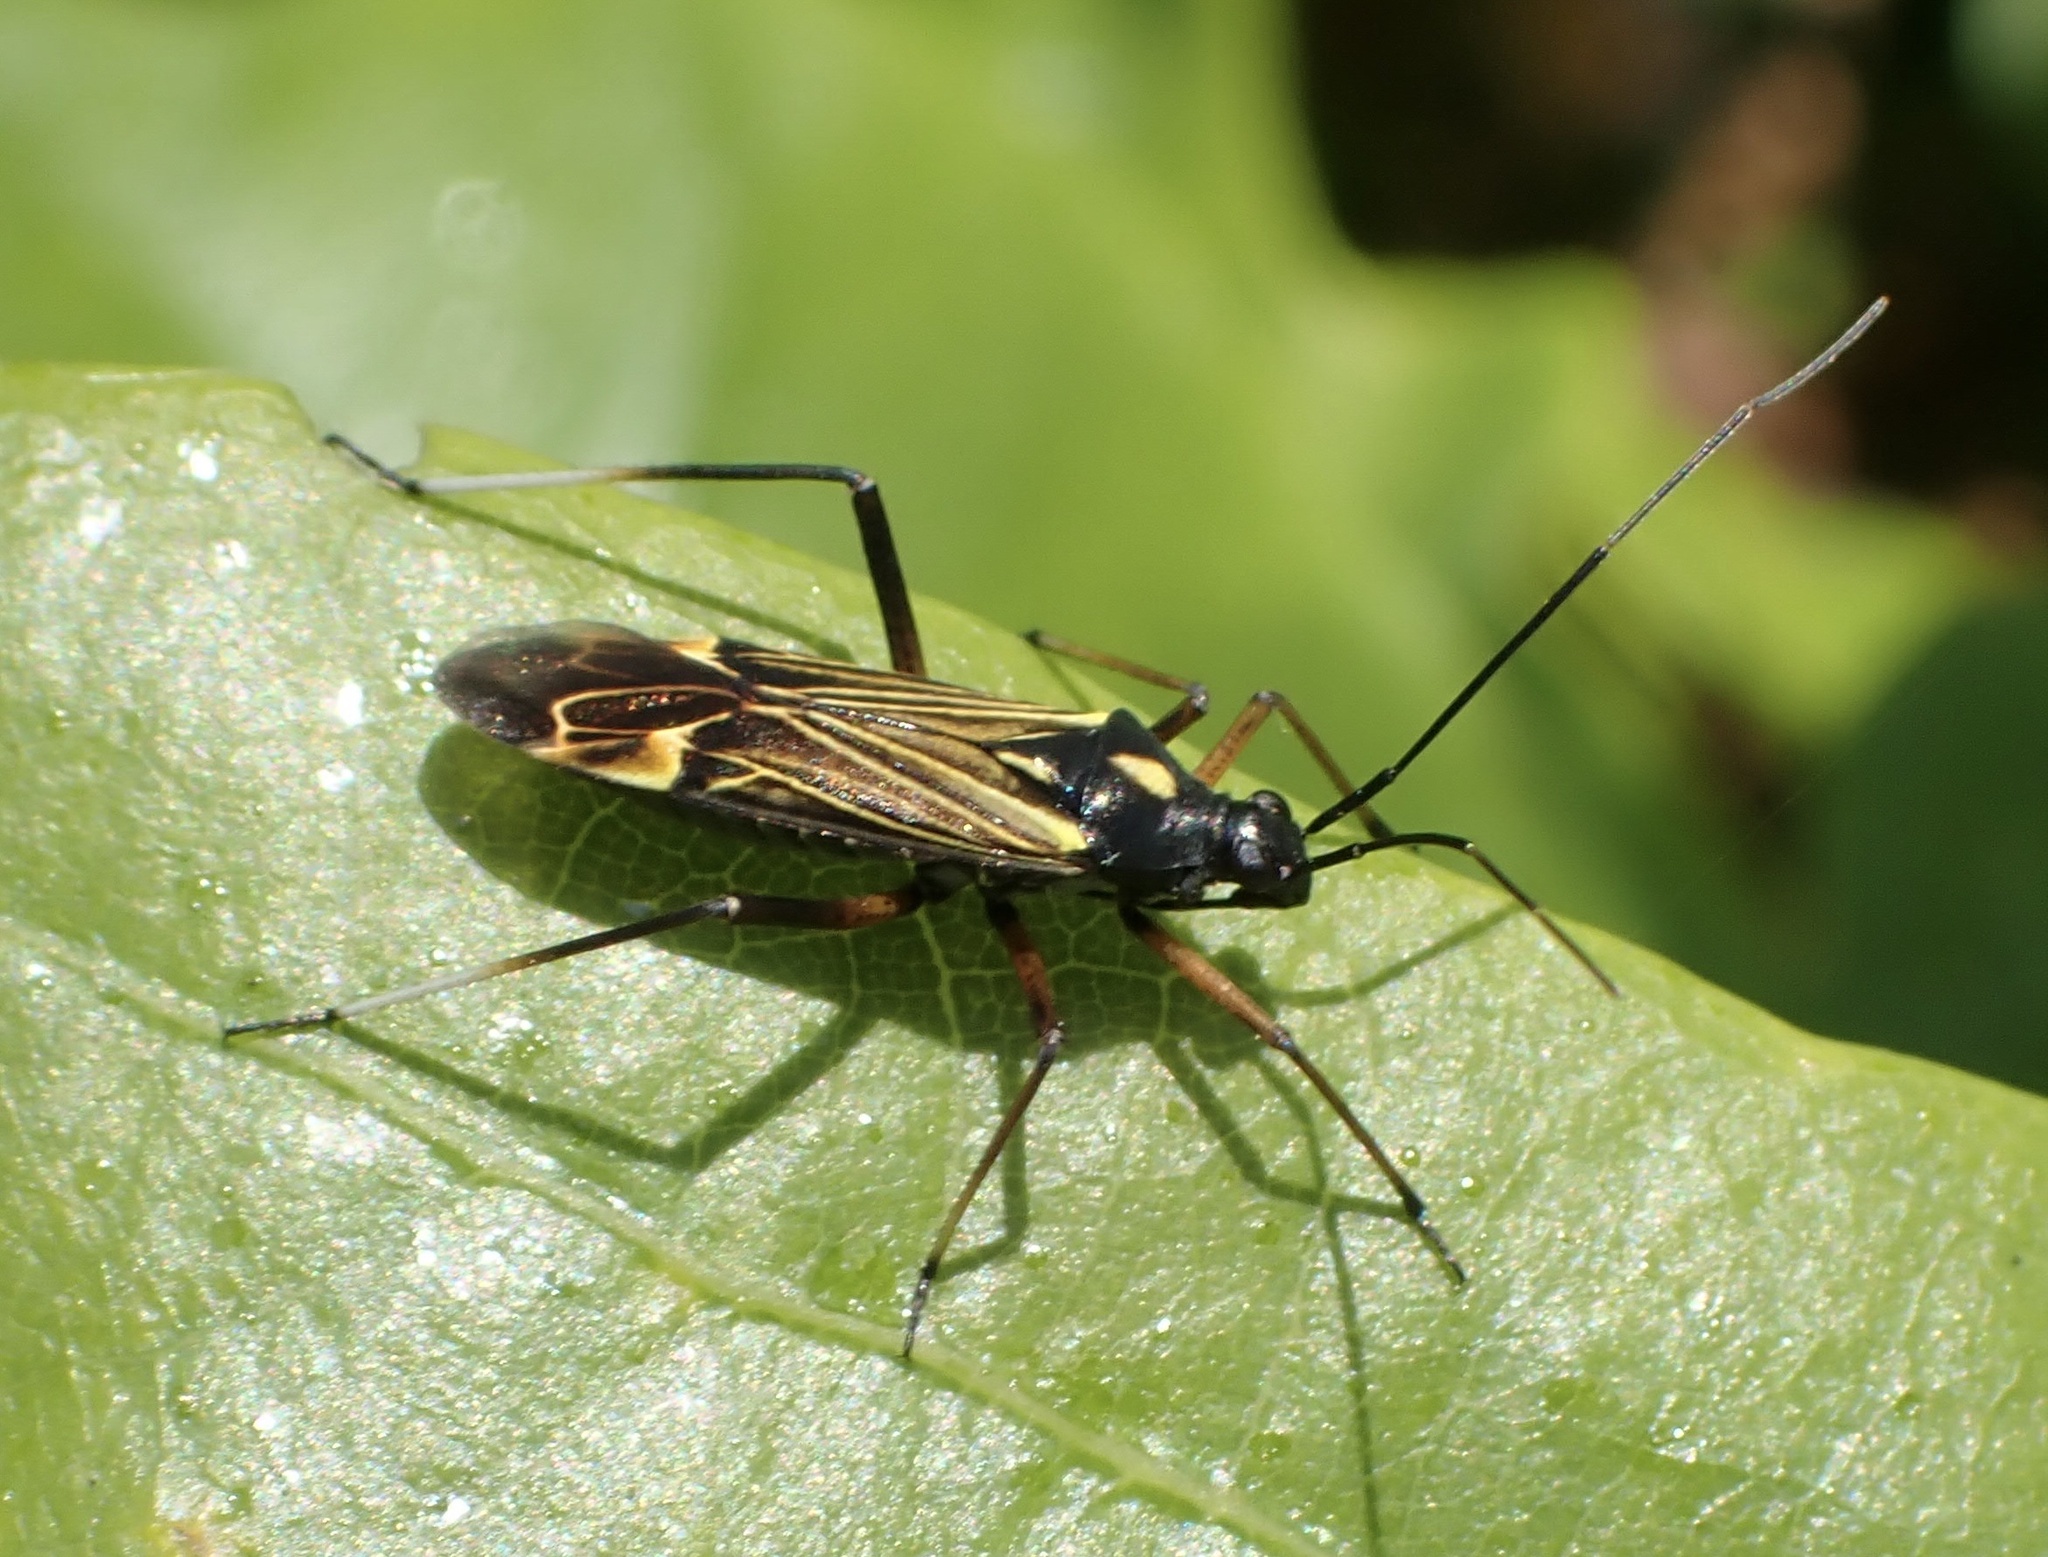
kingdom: Animalia
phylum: Arthropoda
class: Insecta
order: Hemiptera
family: Miridae
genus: Miris
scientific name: Miris striatus
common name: Fine streaked bugkin
